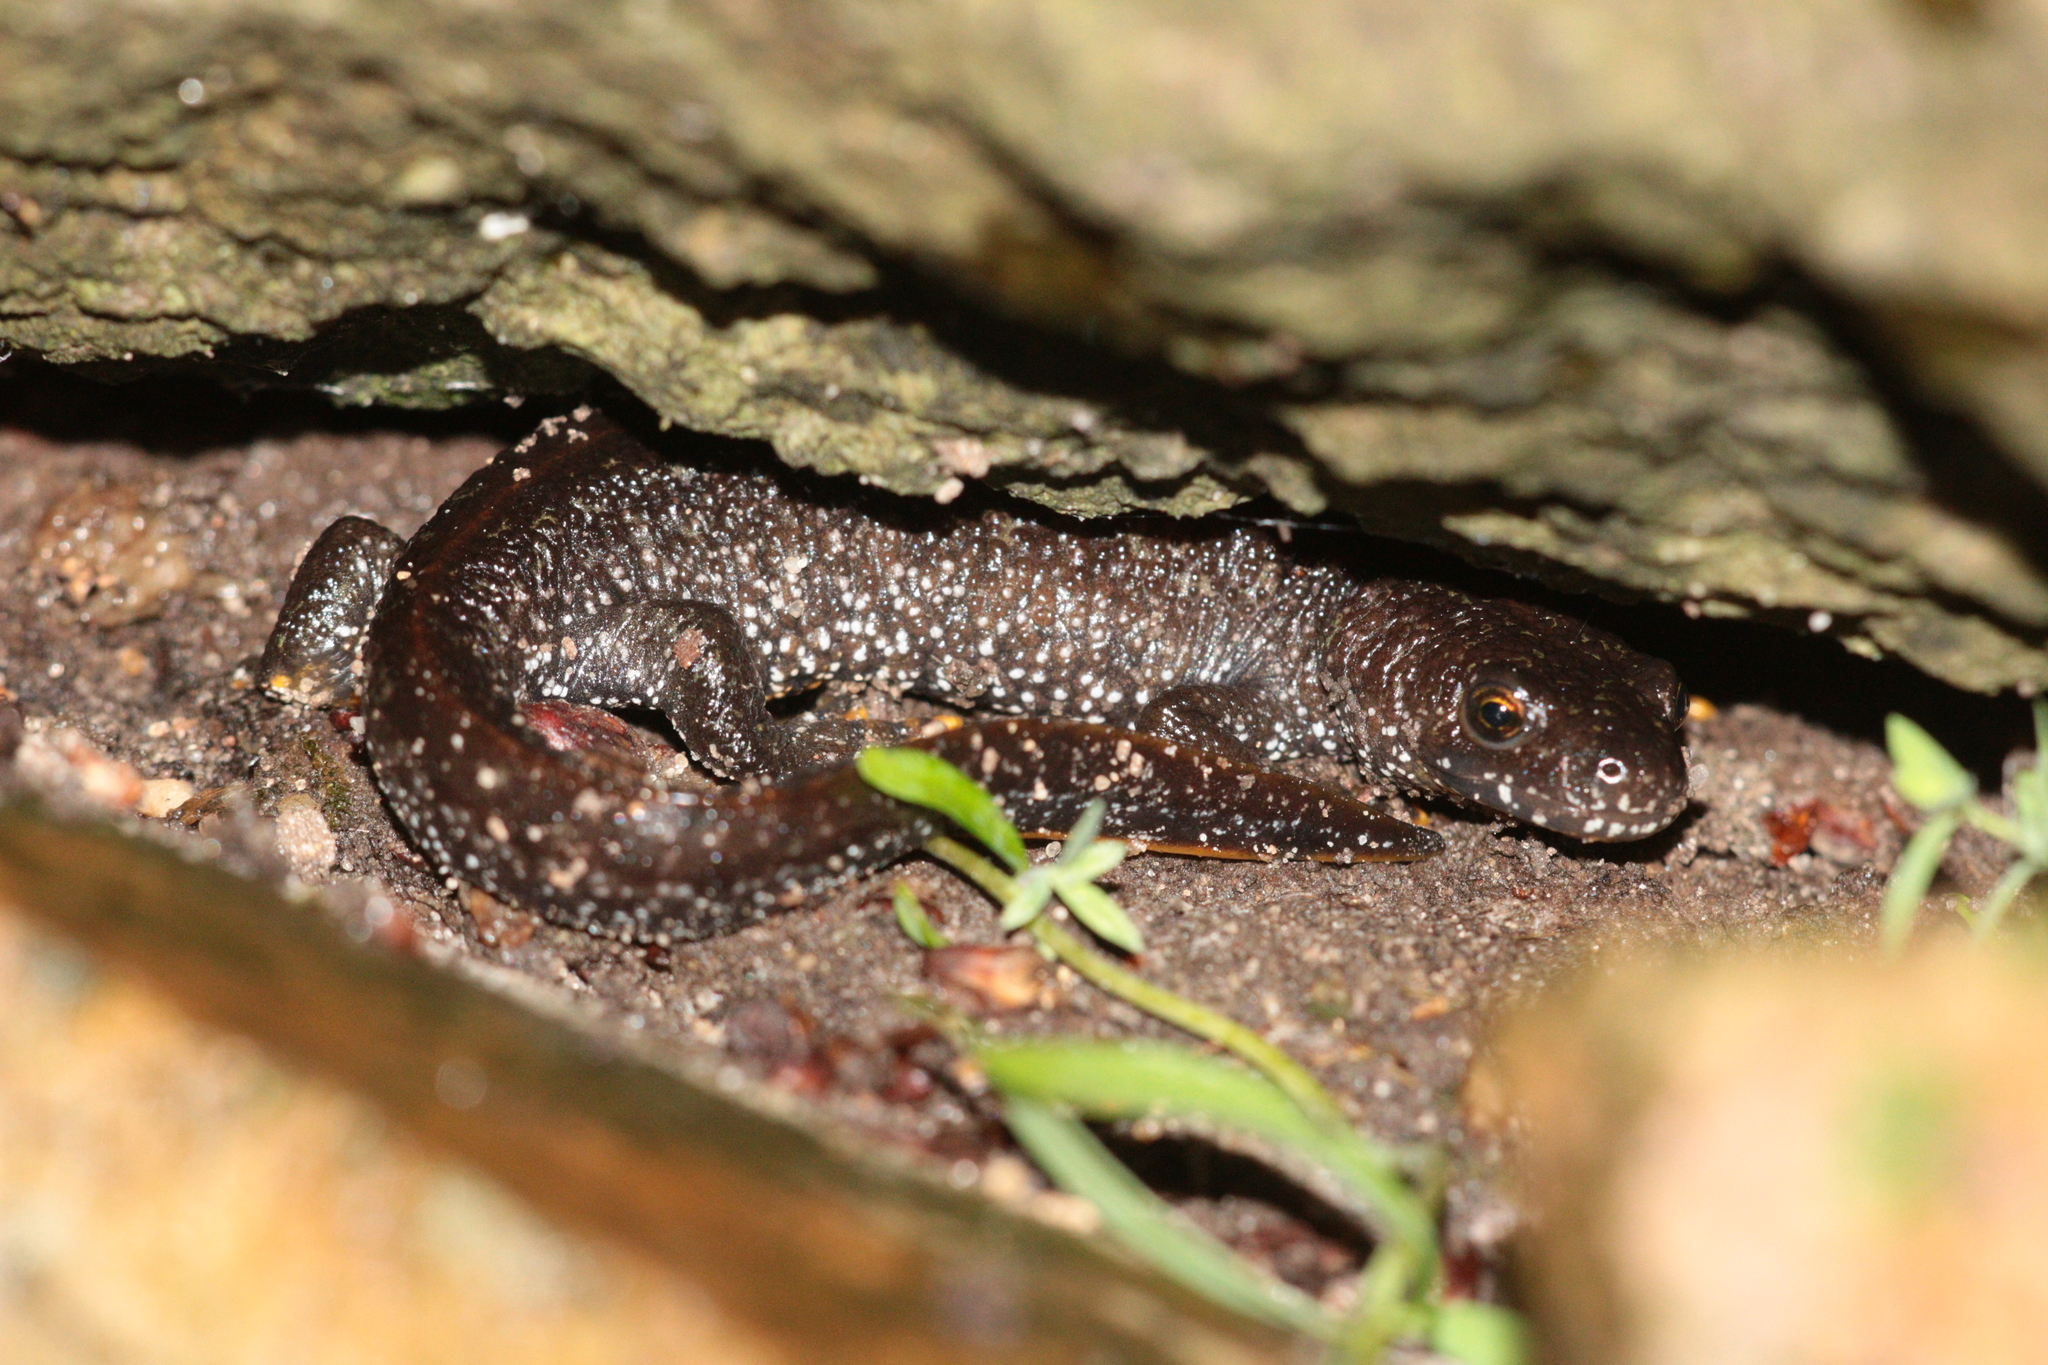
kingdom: Animalia
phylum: Chordata
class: Amphibia
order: Caudata
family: Salamandridae
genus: Triturus
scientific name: Triturus cristatus
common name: Crested newt
